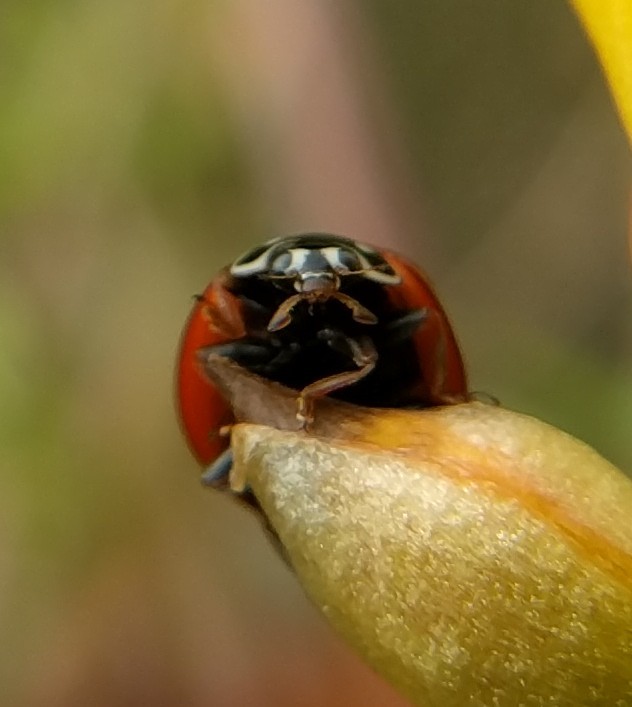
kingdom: Animalia
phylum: Arthropoda
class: Insecta
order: Coleoptera
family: Coccinellidae
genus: Cycloneda
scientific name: Cycloneda sanguinea
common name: Ladybird beetle
